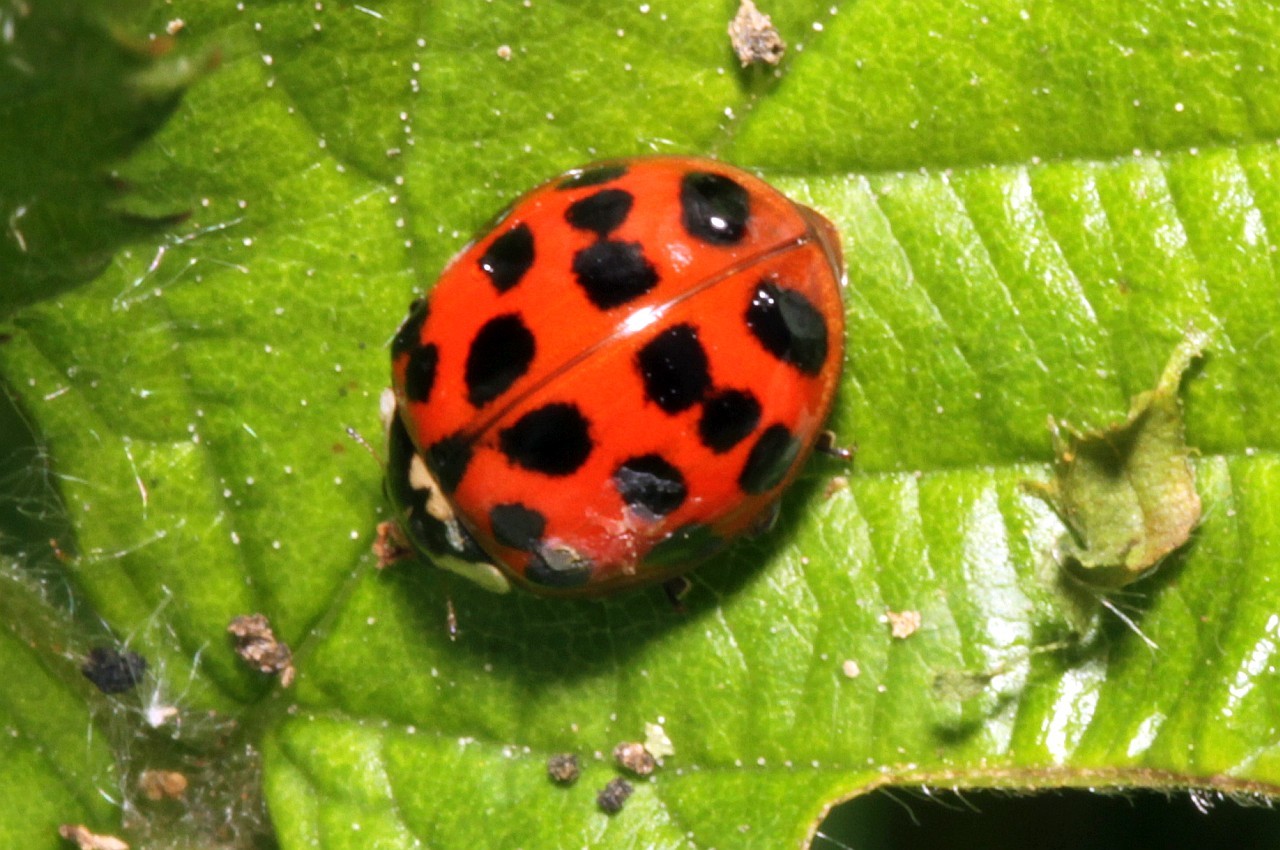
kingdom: Animalia
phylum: Arthropoda
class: Insecta
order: Coleoptera
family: Coccinellidae
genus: Harmonia
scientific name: Harmonia axyridis
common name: Harlequin ladybird
